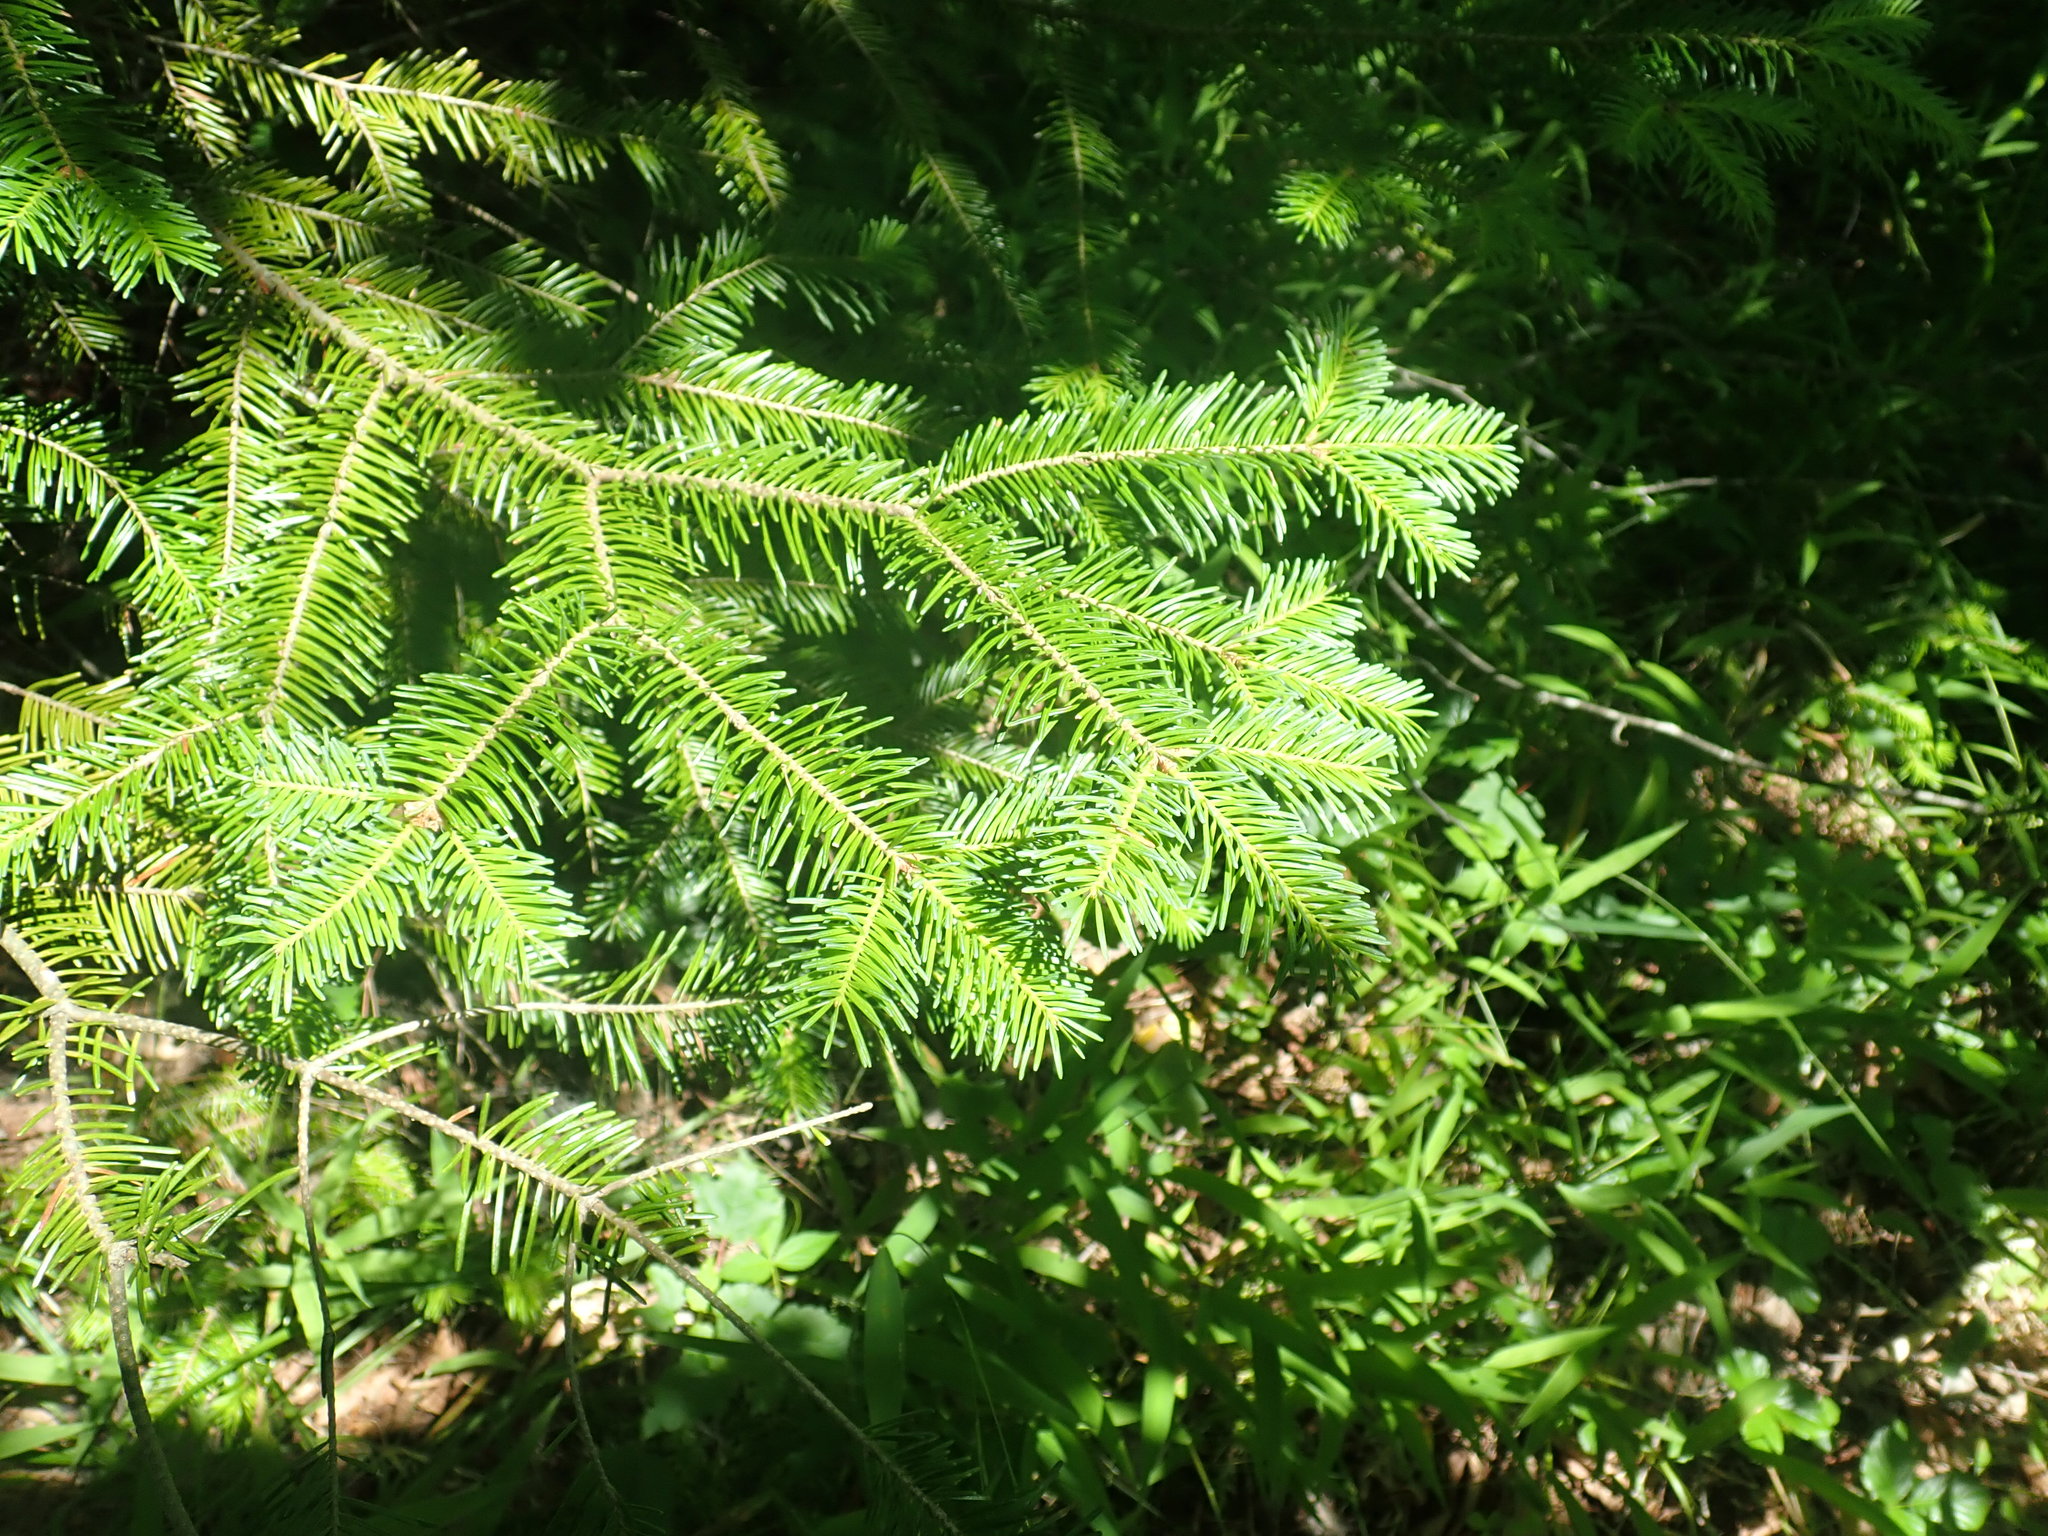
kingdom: Plantae
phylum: Tracheophyta
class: Pinopsida
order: Pinales
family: Pinaceae
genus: Abies
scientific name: Abies balsamea
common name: Balsam fir
